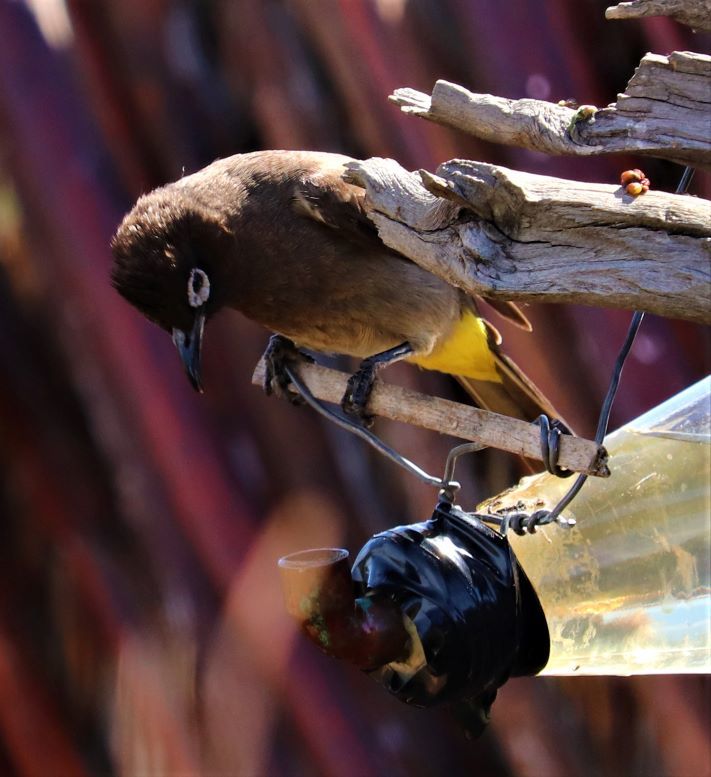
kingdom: Animalia
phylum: Chordata
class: Aves
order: Passeriformes
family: Pycnonotidae
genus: Pycnonotus
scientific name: Pycnonotus capensis
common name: Cape bulbul
